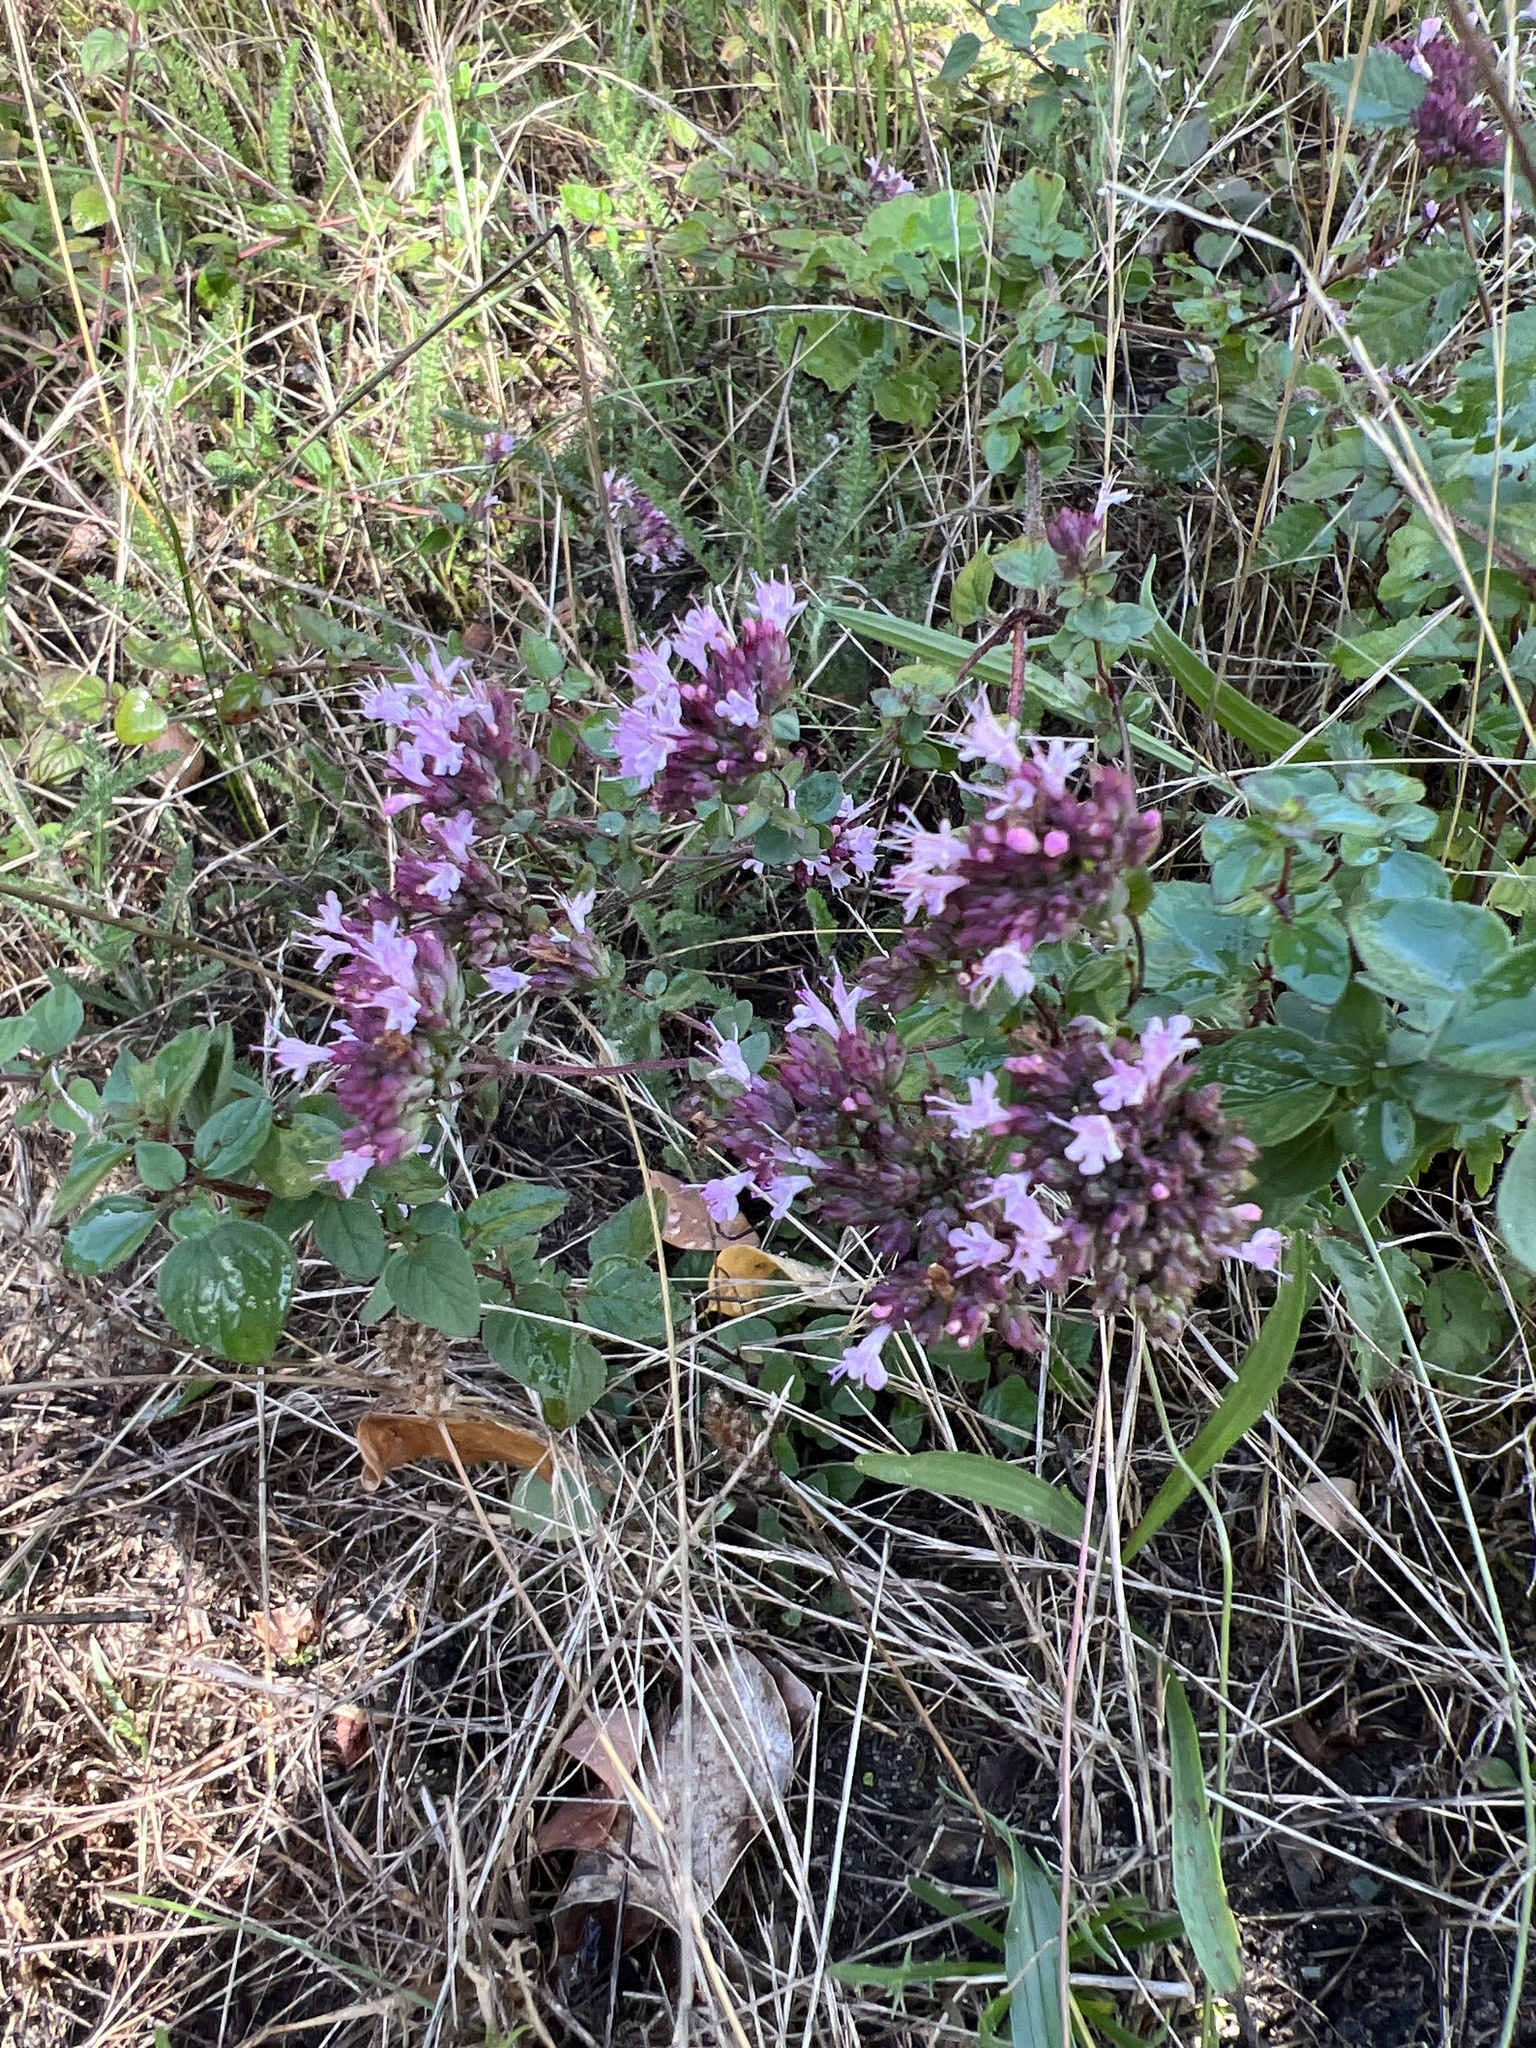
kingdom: Plantae
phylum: Tracheophyta
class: Magnoliopsida
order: Lamiales
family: Lamiaceae
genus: Origanum
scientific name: Origanum vulgare
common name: Wild marjoram
